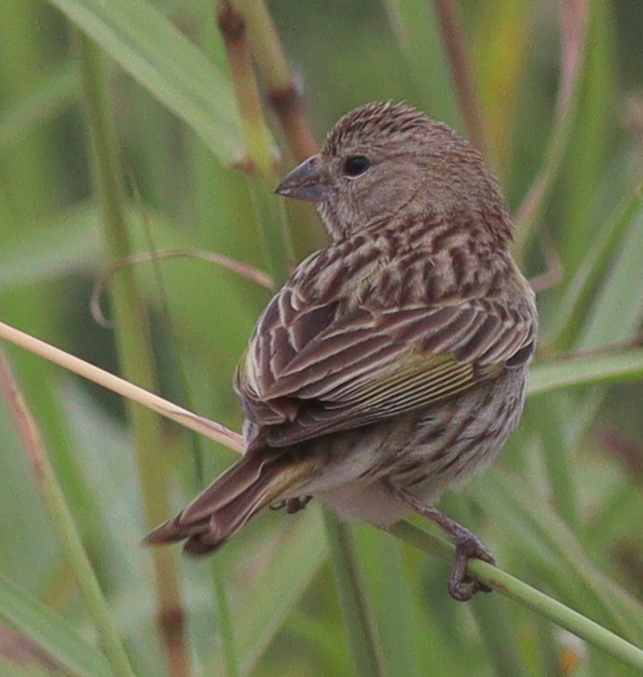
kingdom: Animalia
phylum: Chordata
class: Aves
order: Passeriformes
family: Thraupidae
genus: Sicalis
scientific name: Sicalis flaveola
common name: Saffron finch
